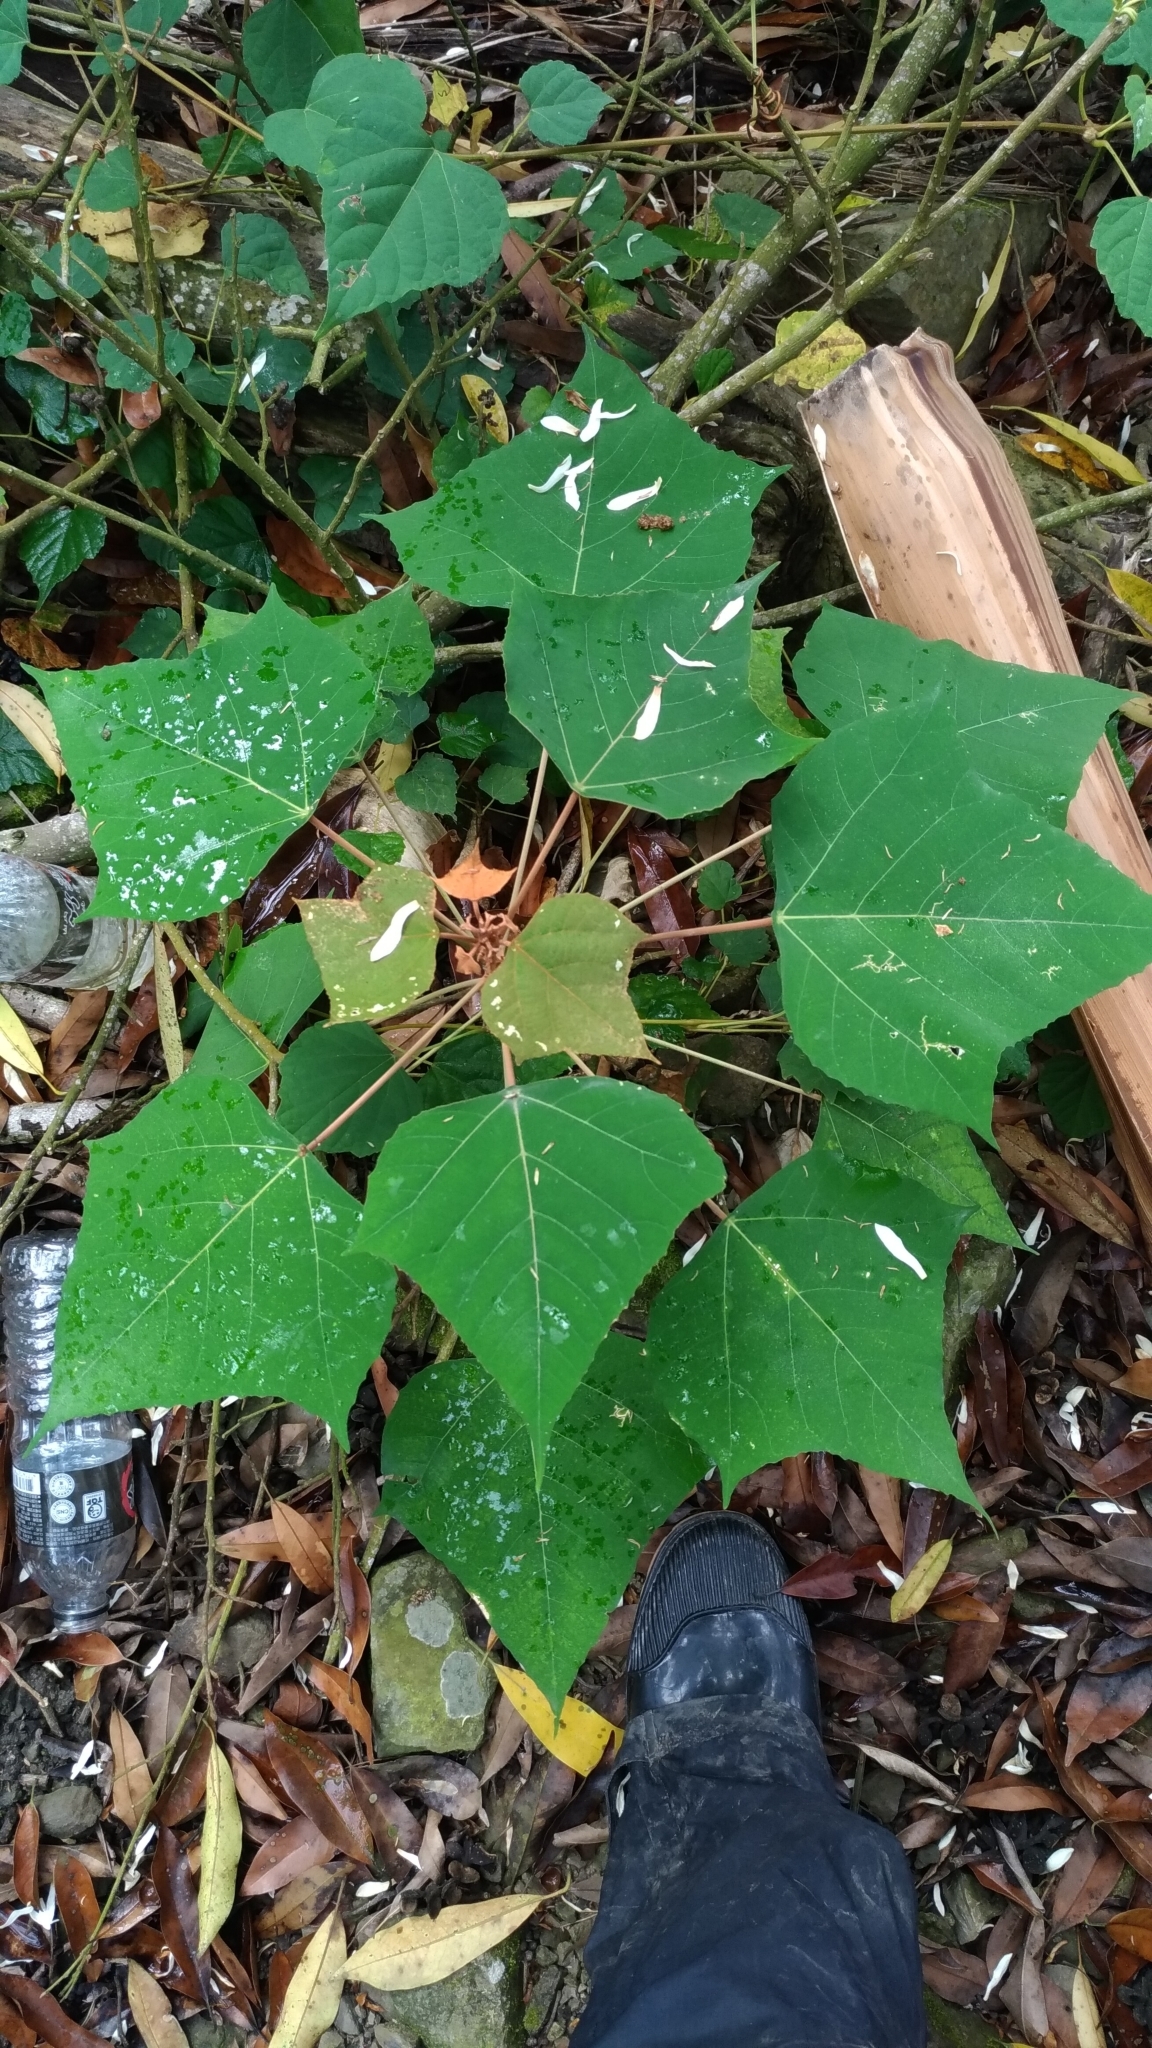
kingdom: Plantae
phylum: Tracheophyta
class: Magnoliopsida
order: Malpighiales
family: Euphorbiaceae
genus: Mallotus
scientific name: Mallotus paniculatus
